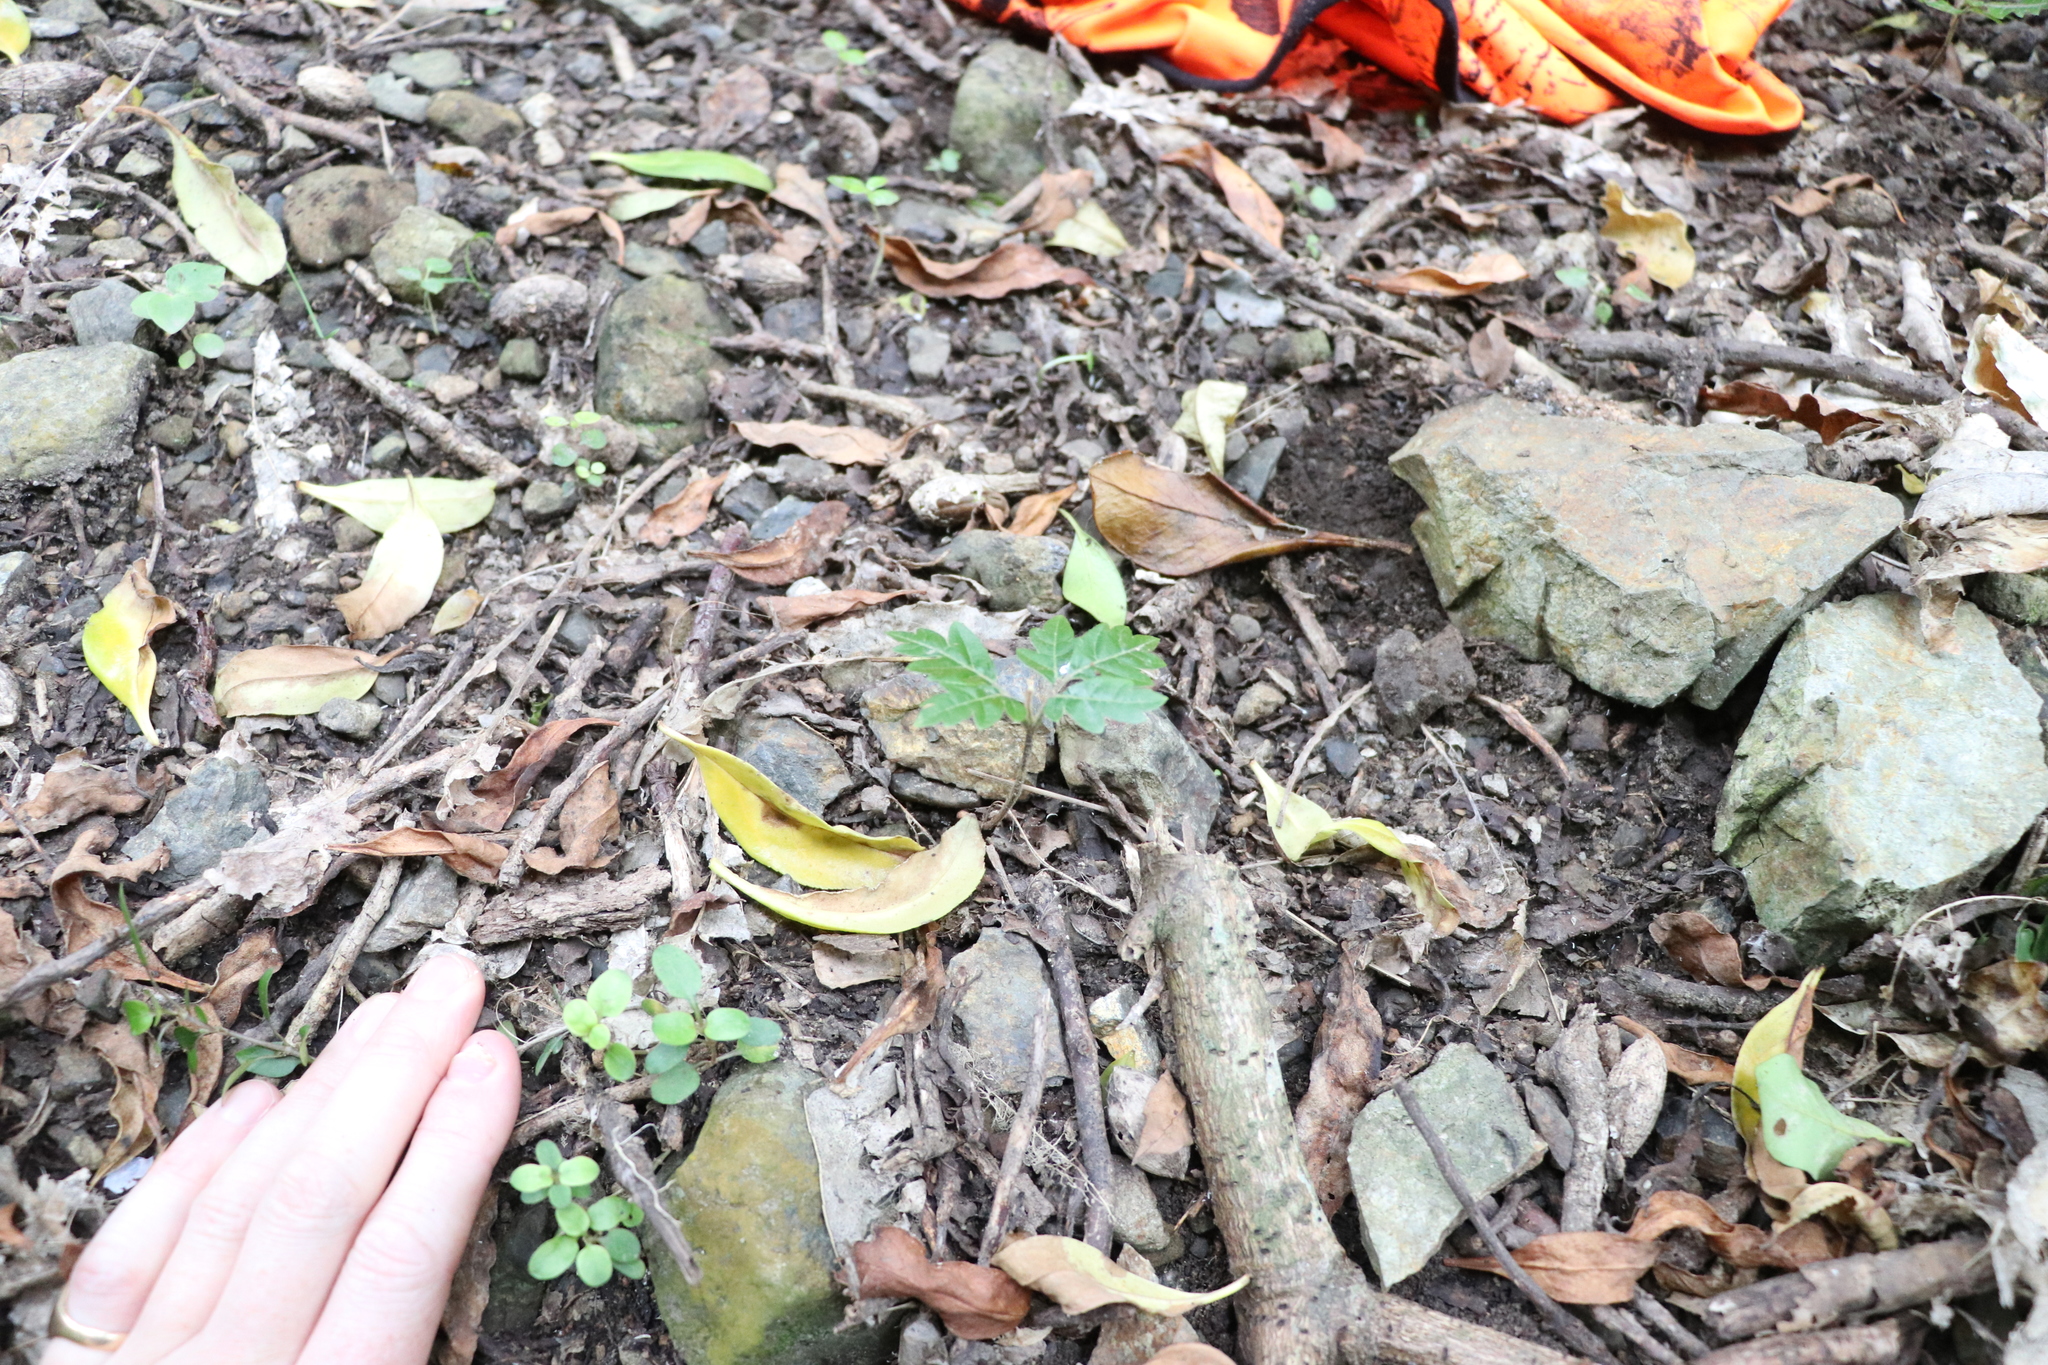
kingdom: Plantae
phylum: Tracheophyta
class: Magnoliopsida
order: Sapindales
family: Sapindaceae
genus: Alectryon
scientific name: Alectryon excelsus
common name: Three kings titoki
